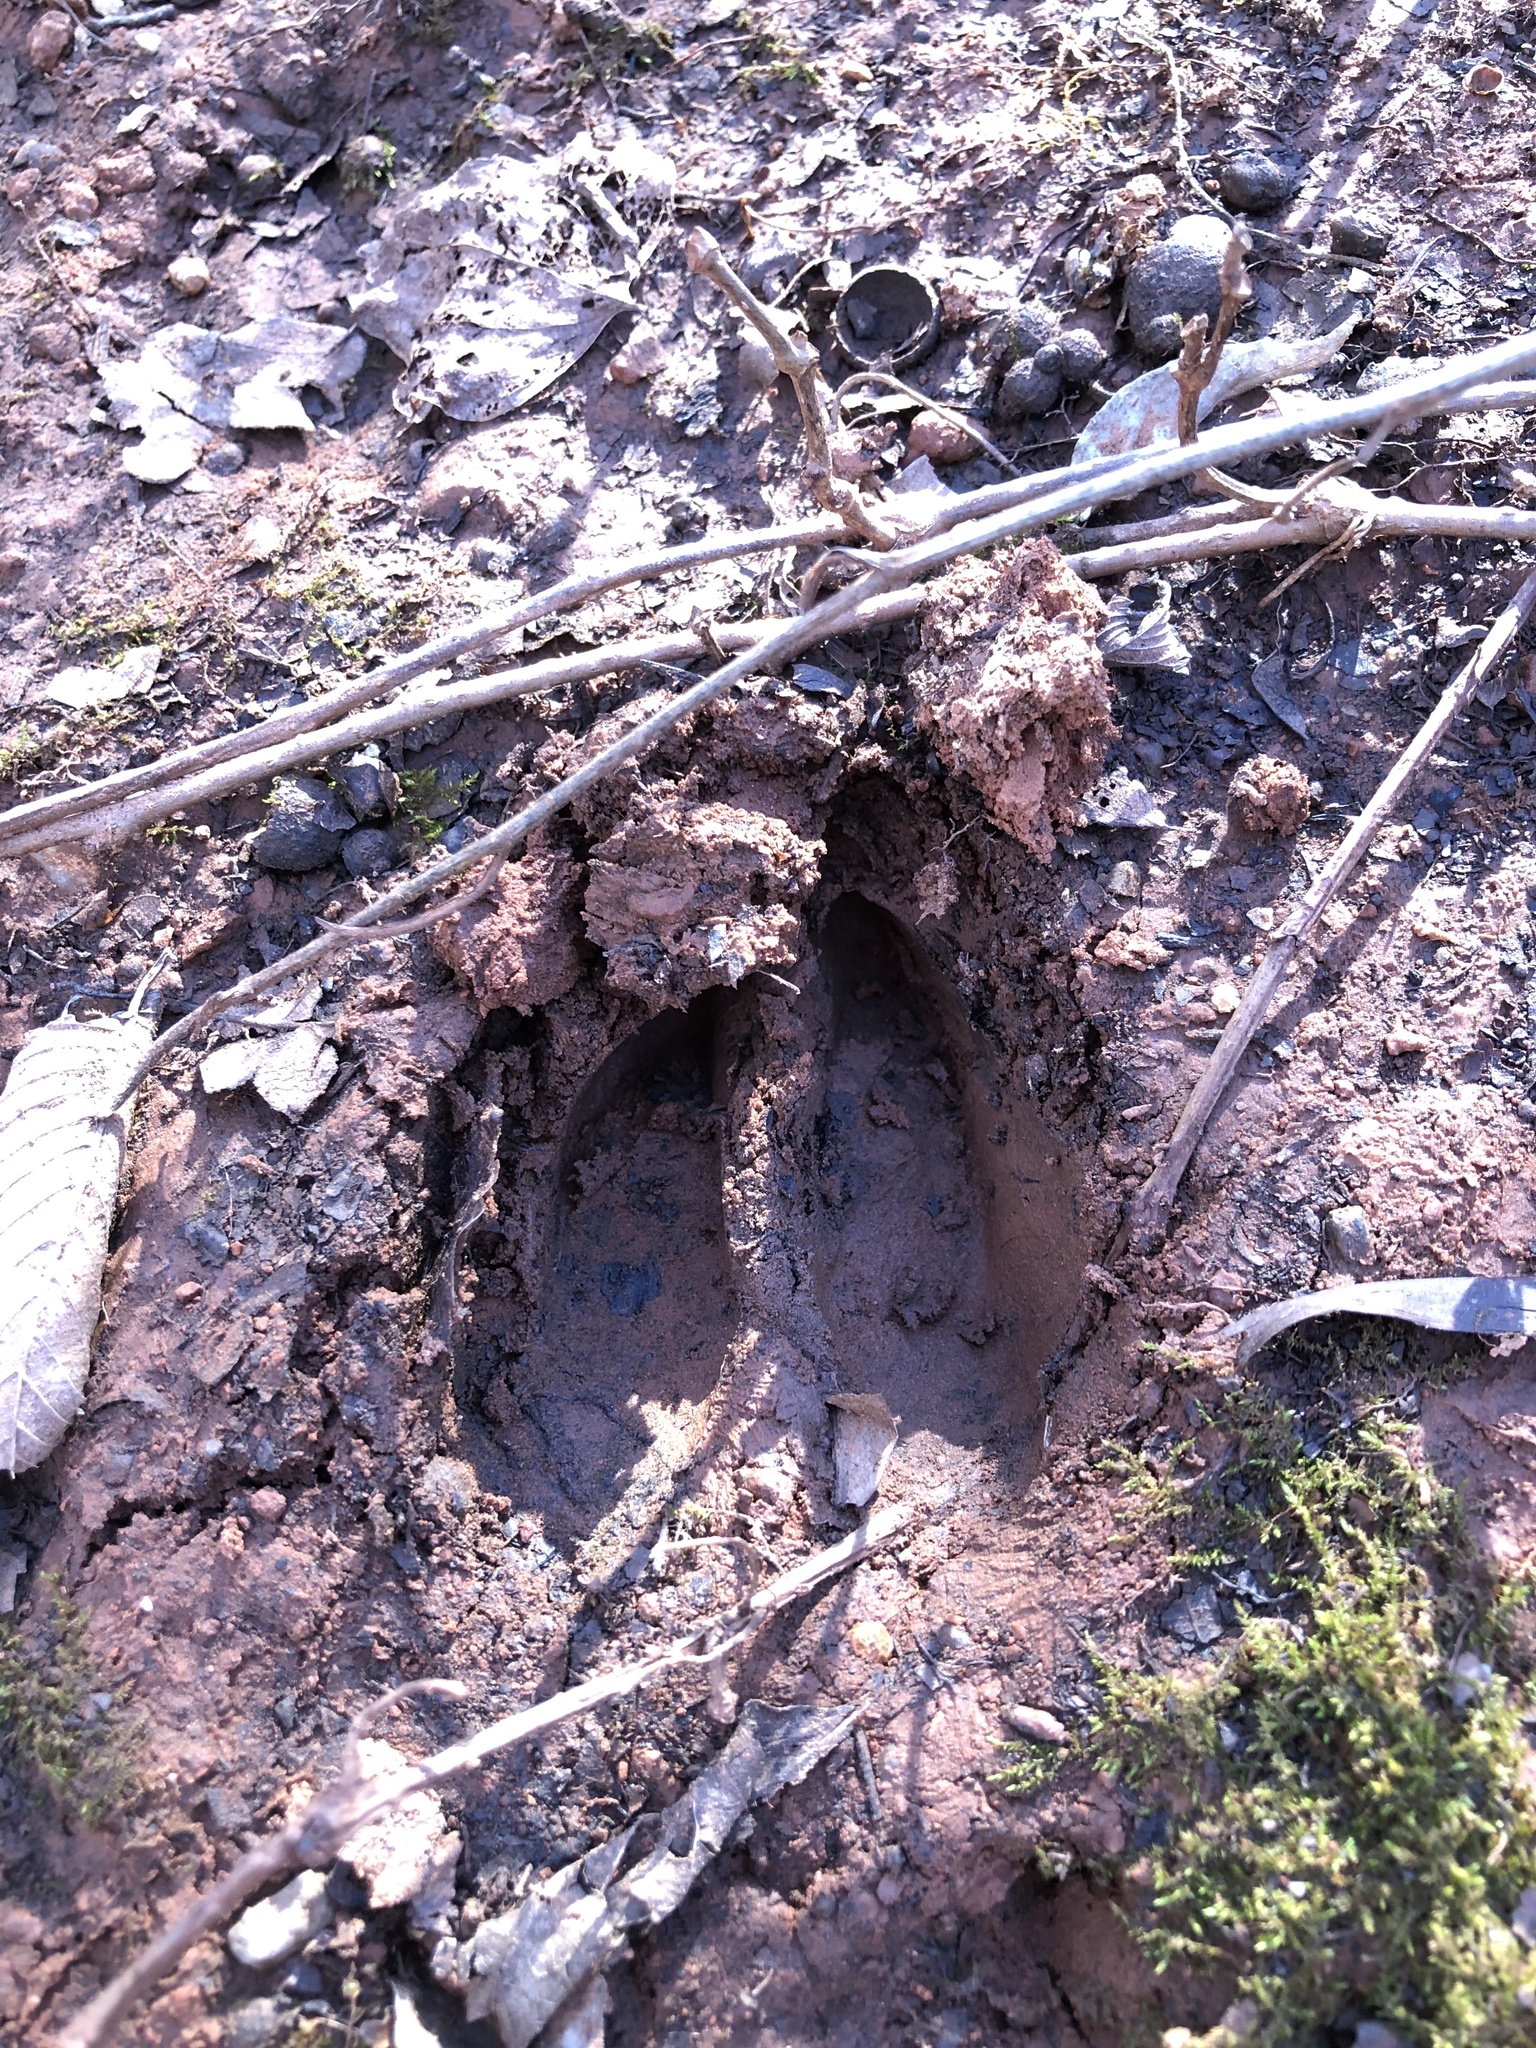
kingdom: Animalia
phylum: Chordata
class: Mammalia
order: Artiodactyla
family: Cervidae
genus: Odocoileus
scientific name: Odocoileus virginianus
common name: White-tailed deer
